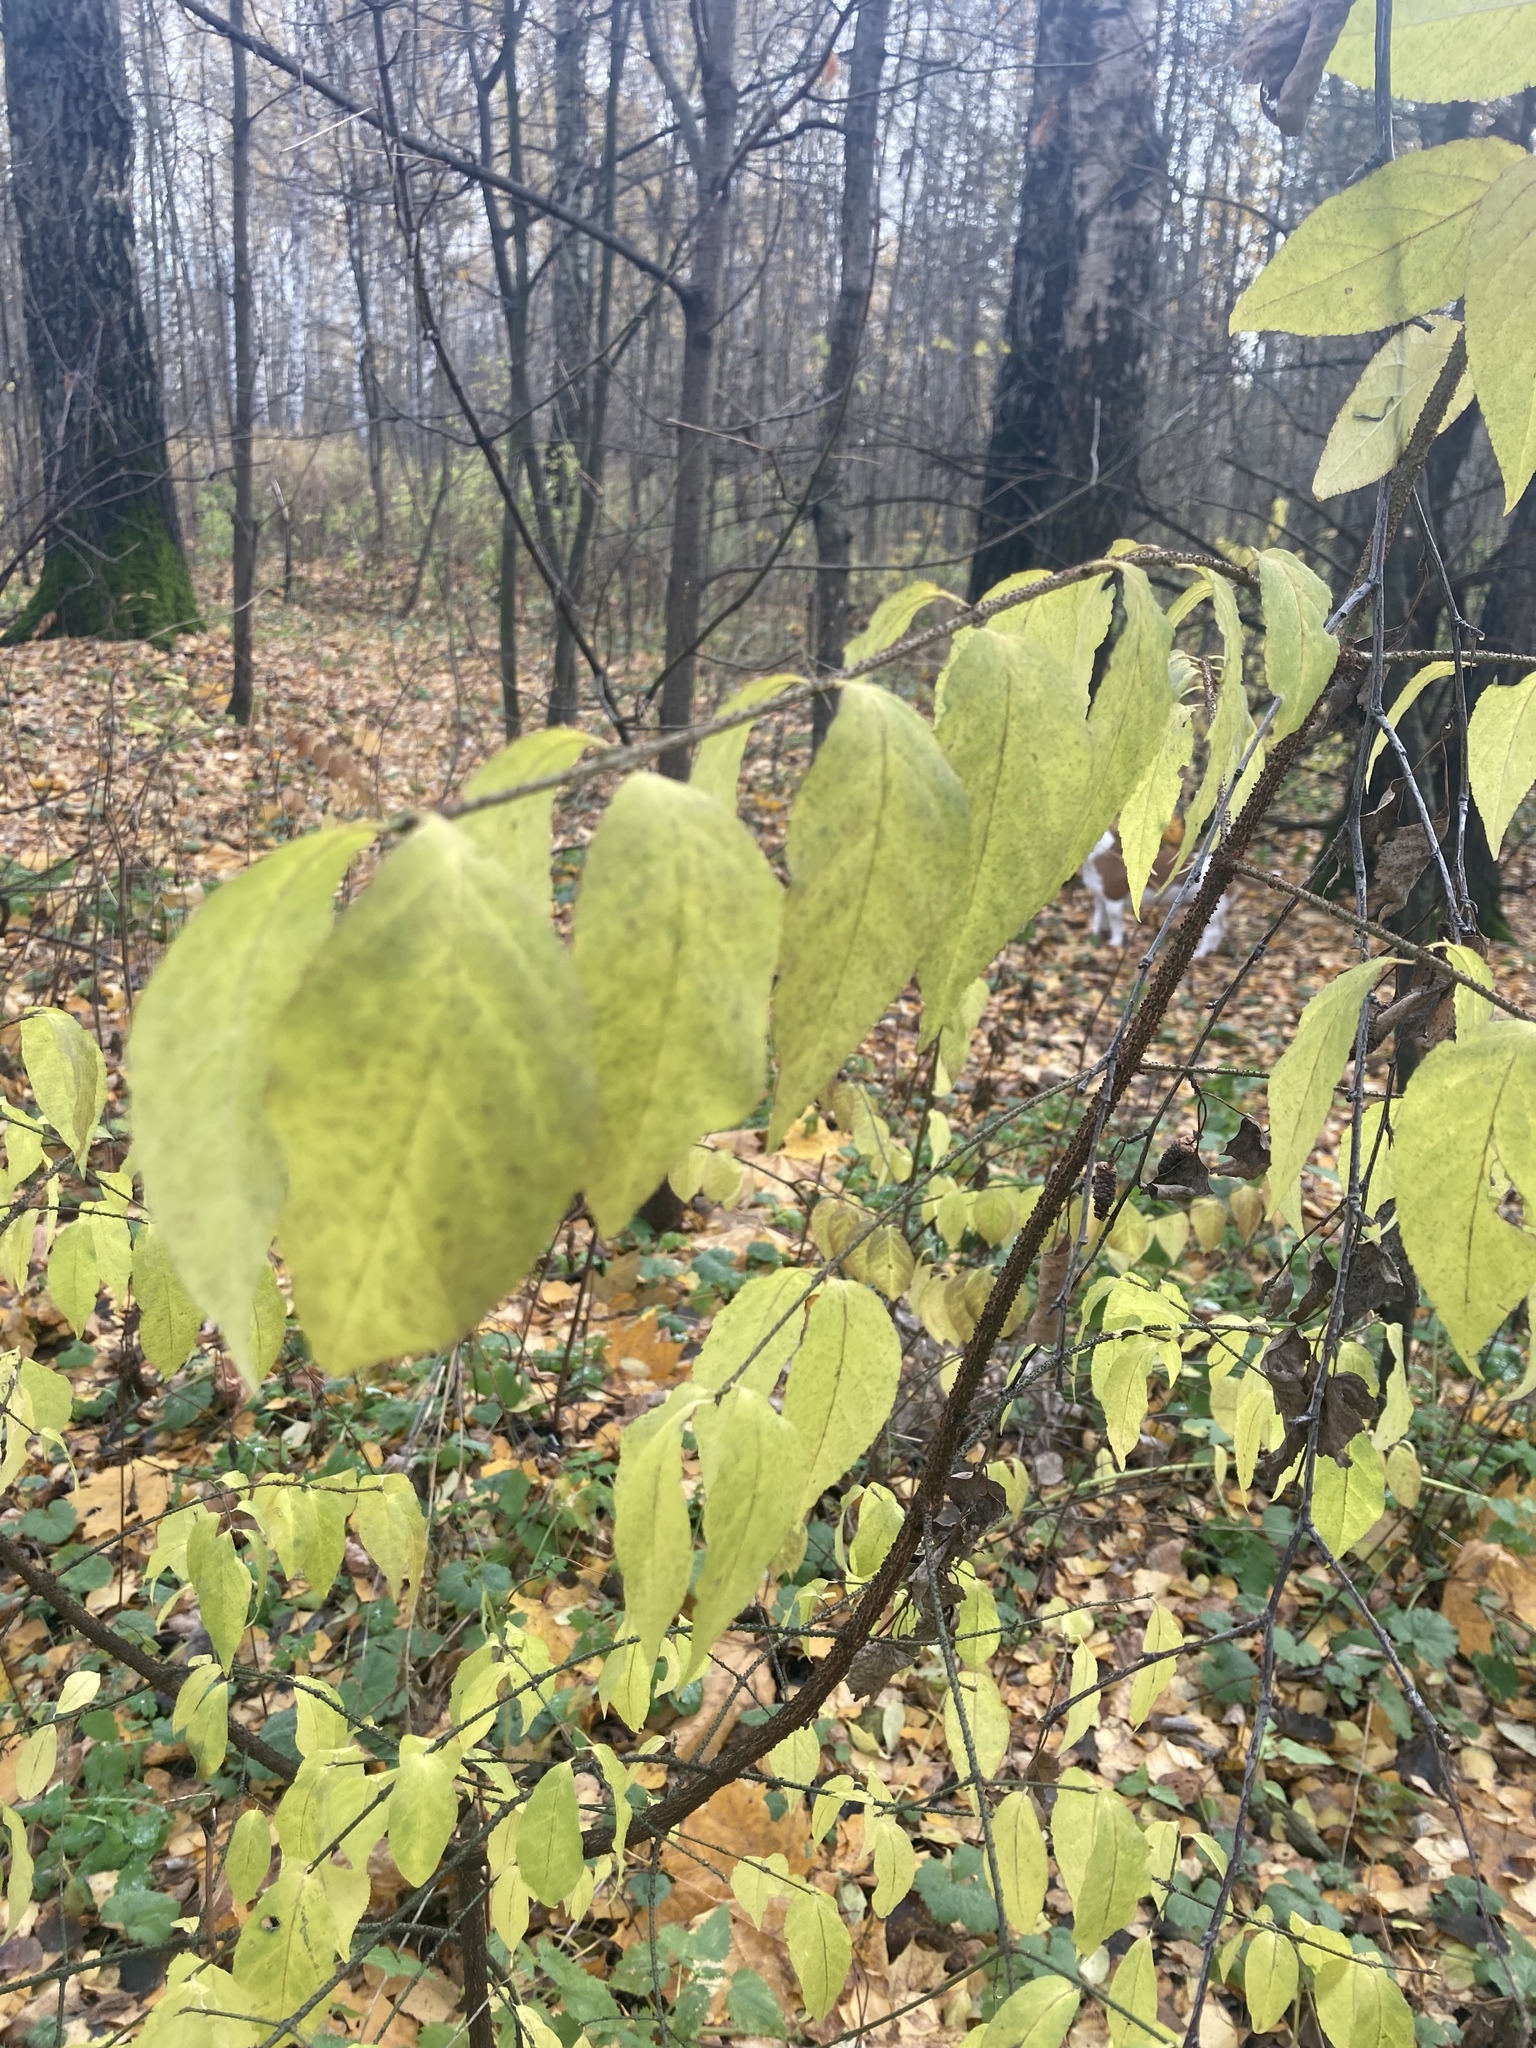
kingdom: Plantae
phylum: Tracheophyta
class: Magnoliopsida
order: Celastrales
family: Celastraceae
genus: Euonymus
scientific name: Euonymus verrucosus
